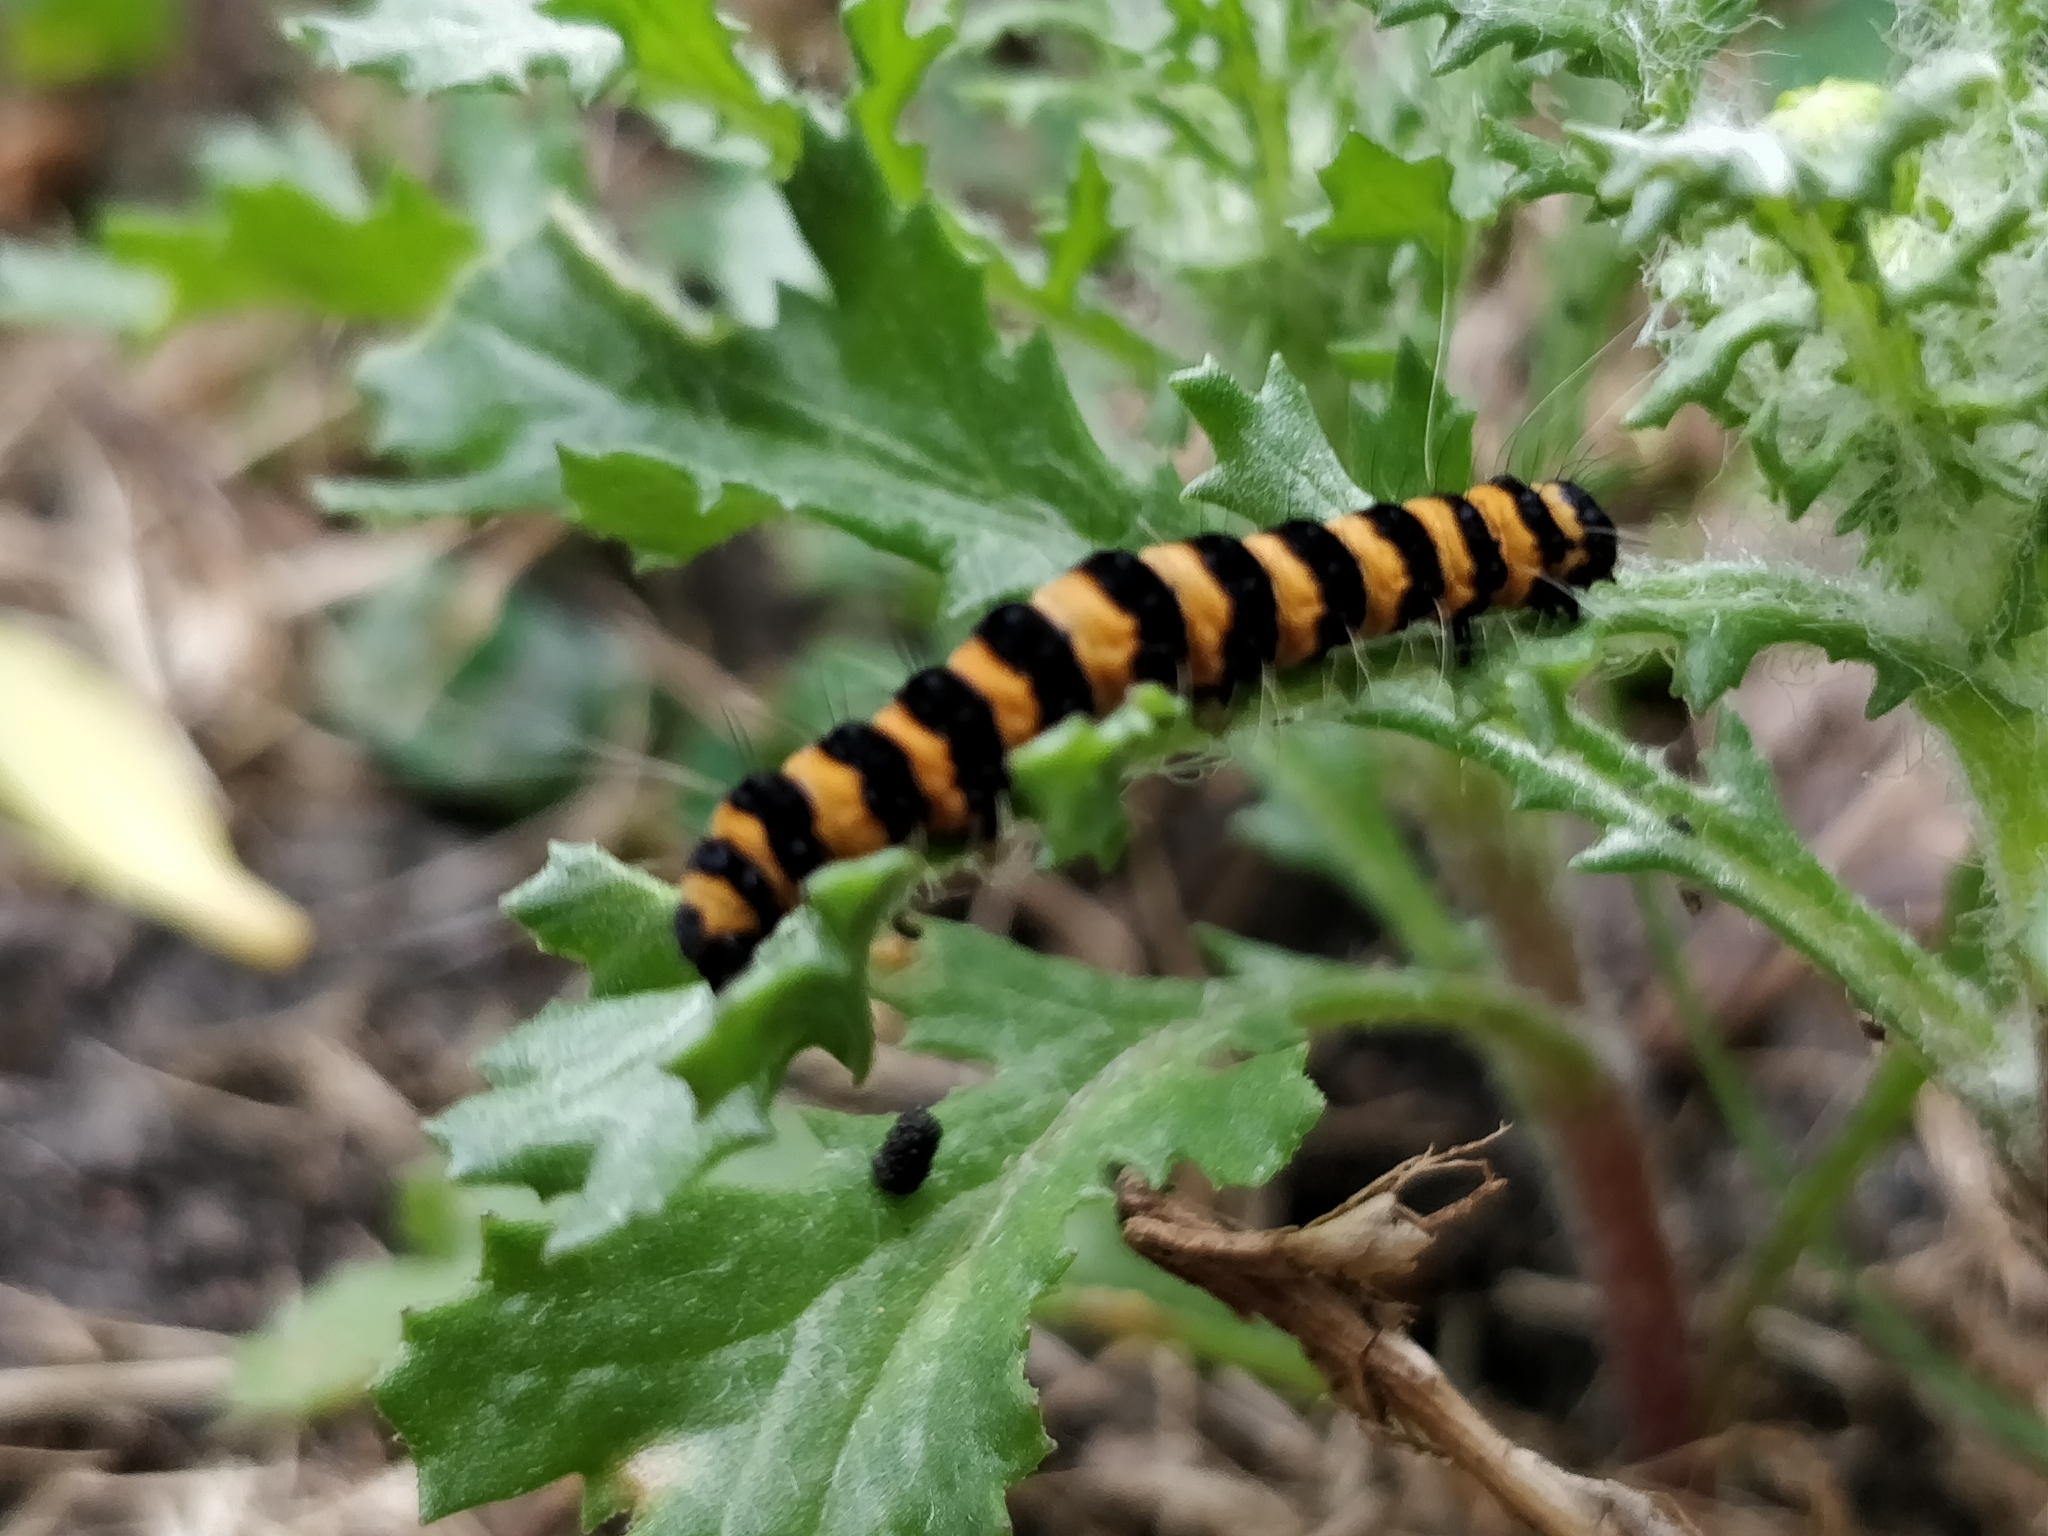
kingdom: Animalia
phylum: Arthropoda
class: Insecta
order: Lepidoptera
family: Erebidae
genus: Tyria
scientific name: Tyria jacobaeae
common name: Cinnabar
